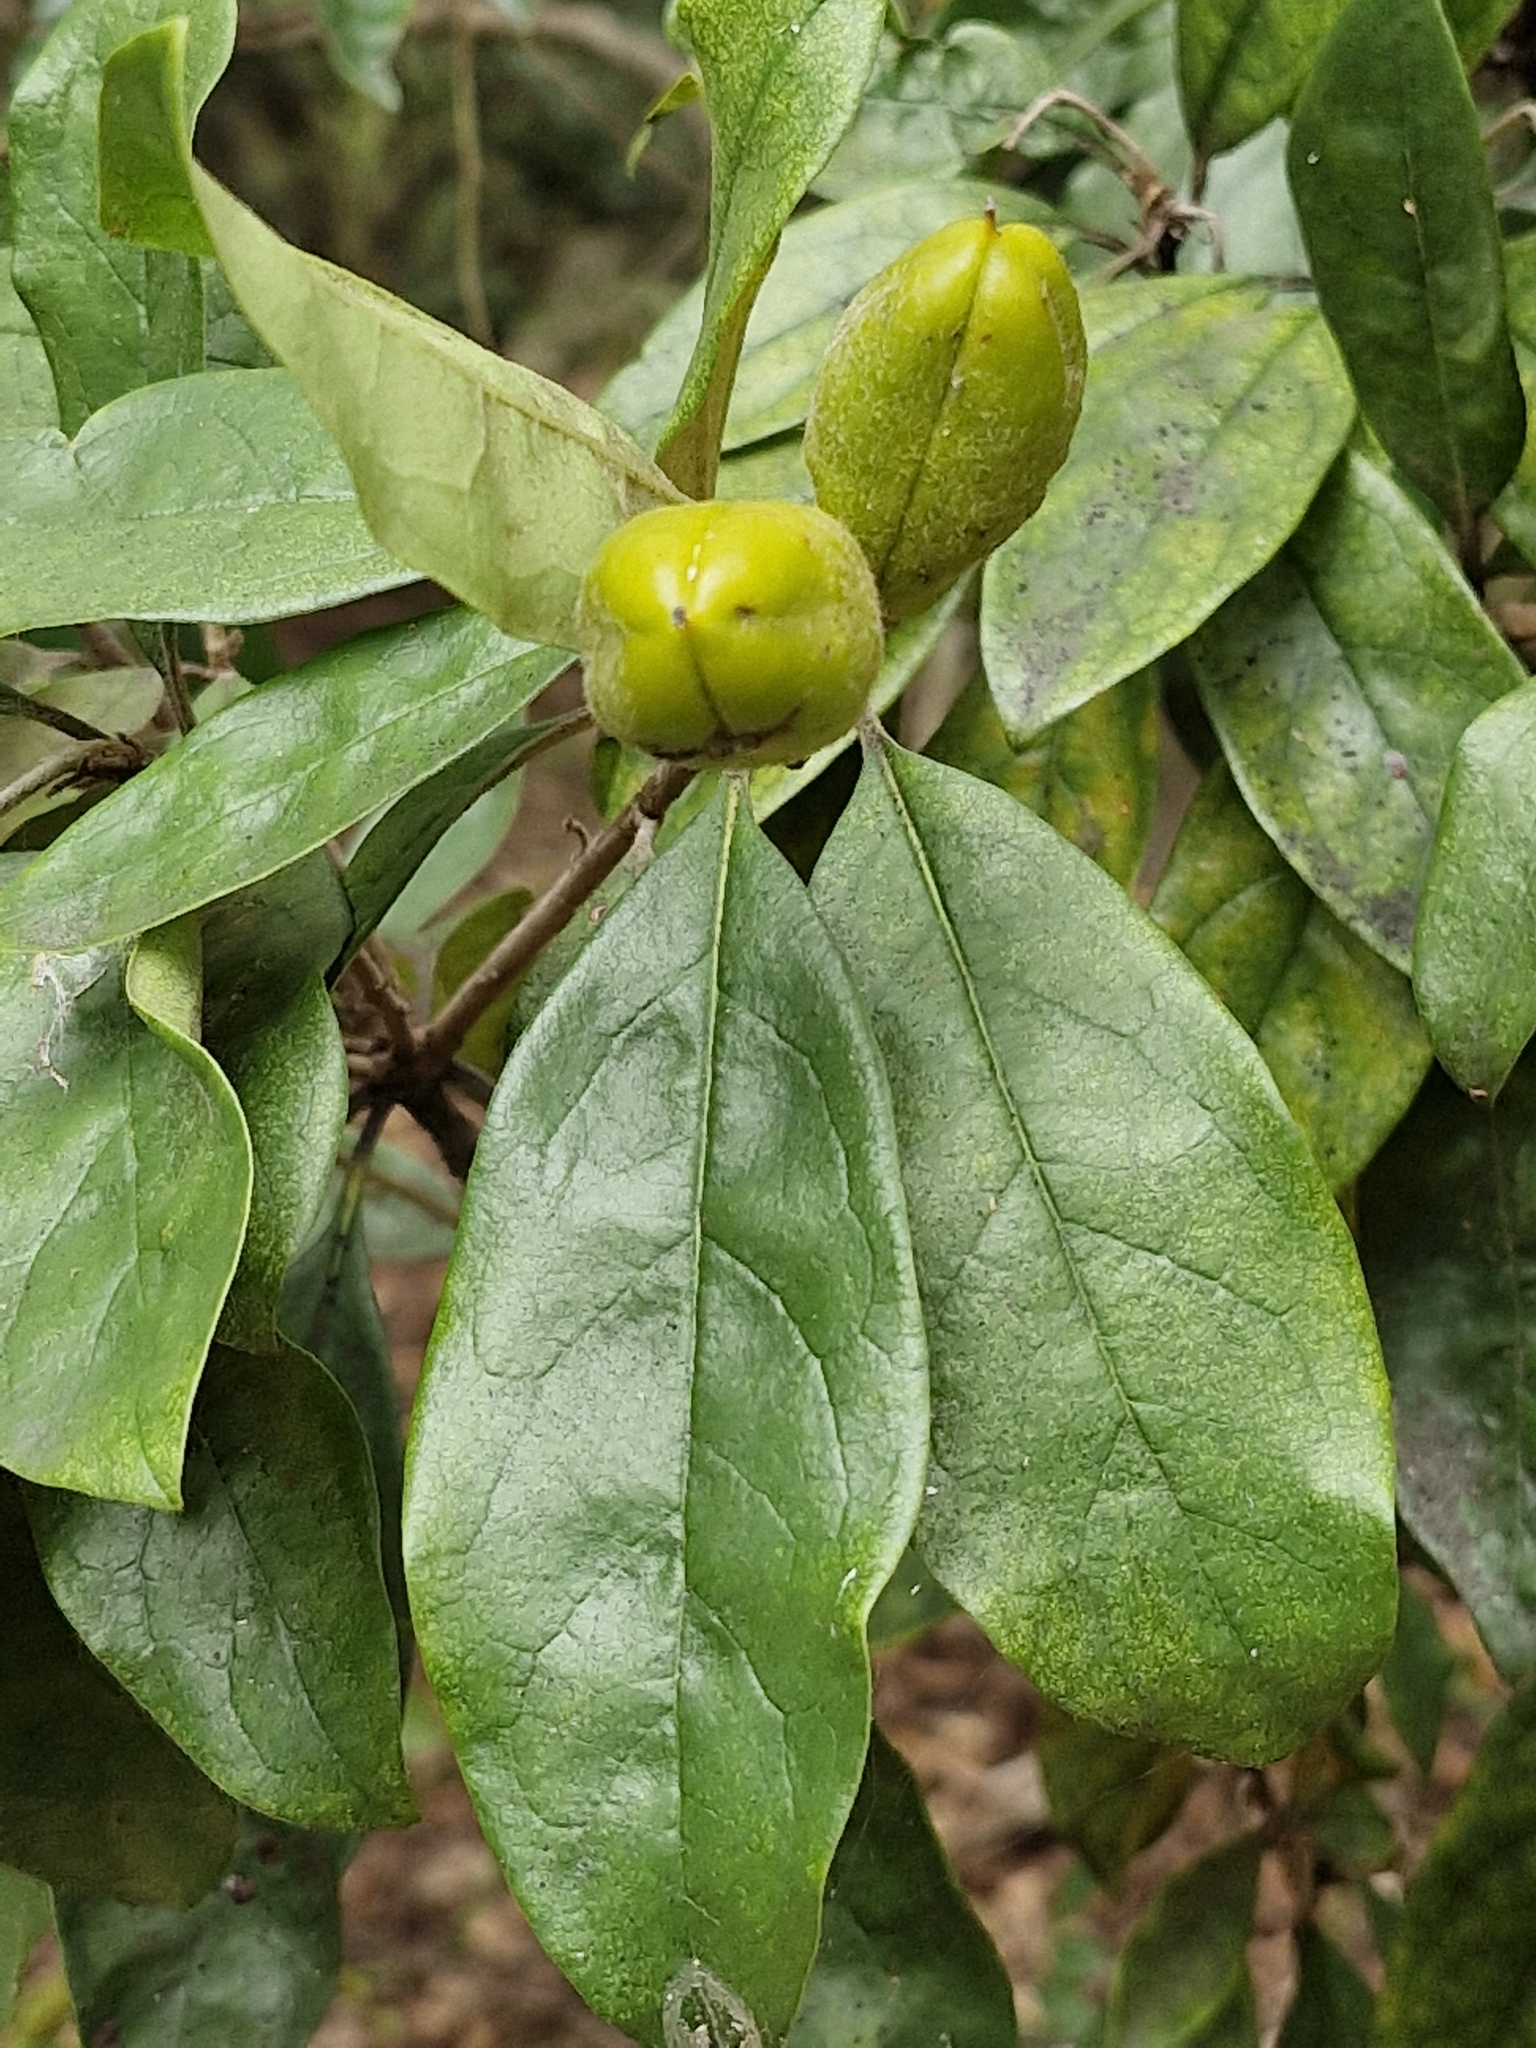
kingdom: Plantae
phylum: Tracheophyta
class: Magnoliopsida
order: Apiales
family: Pittosporaceae
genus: Pittosporum
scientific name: Pittosporum revolutum
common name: Brisbane-laurel
